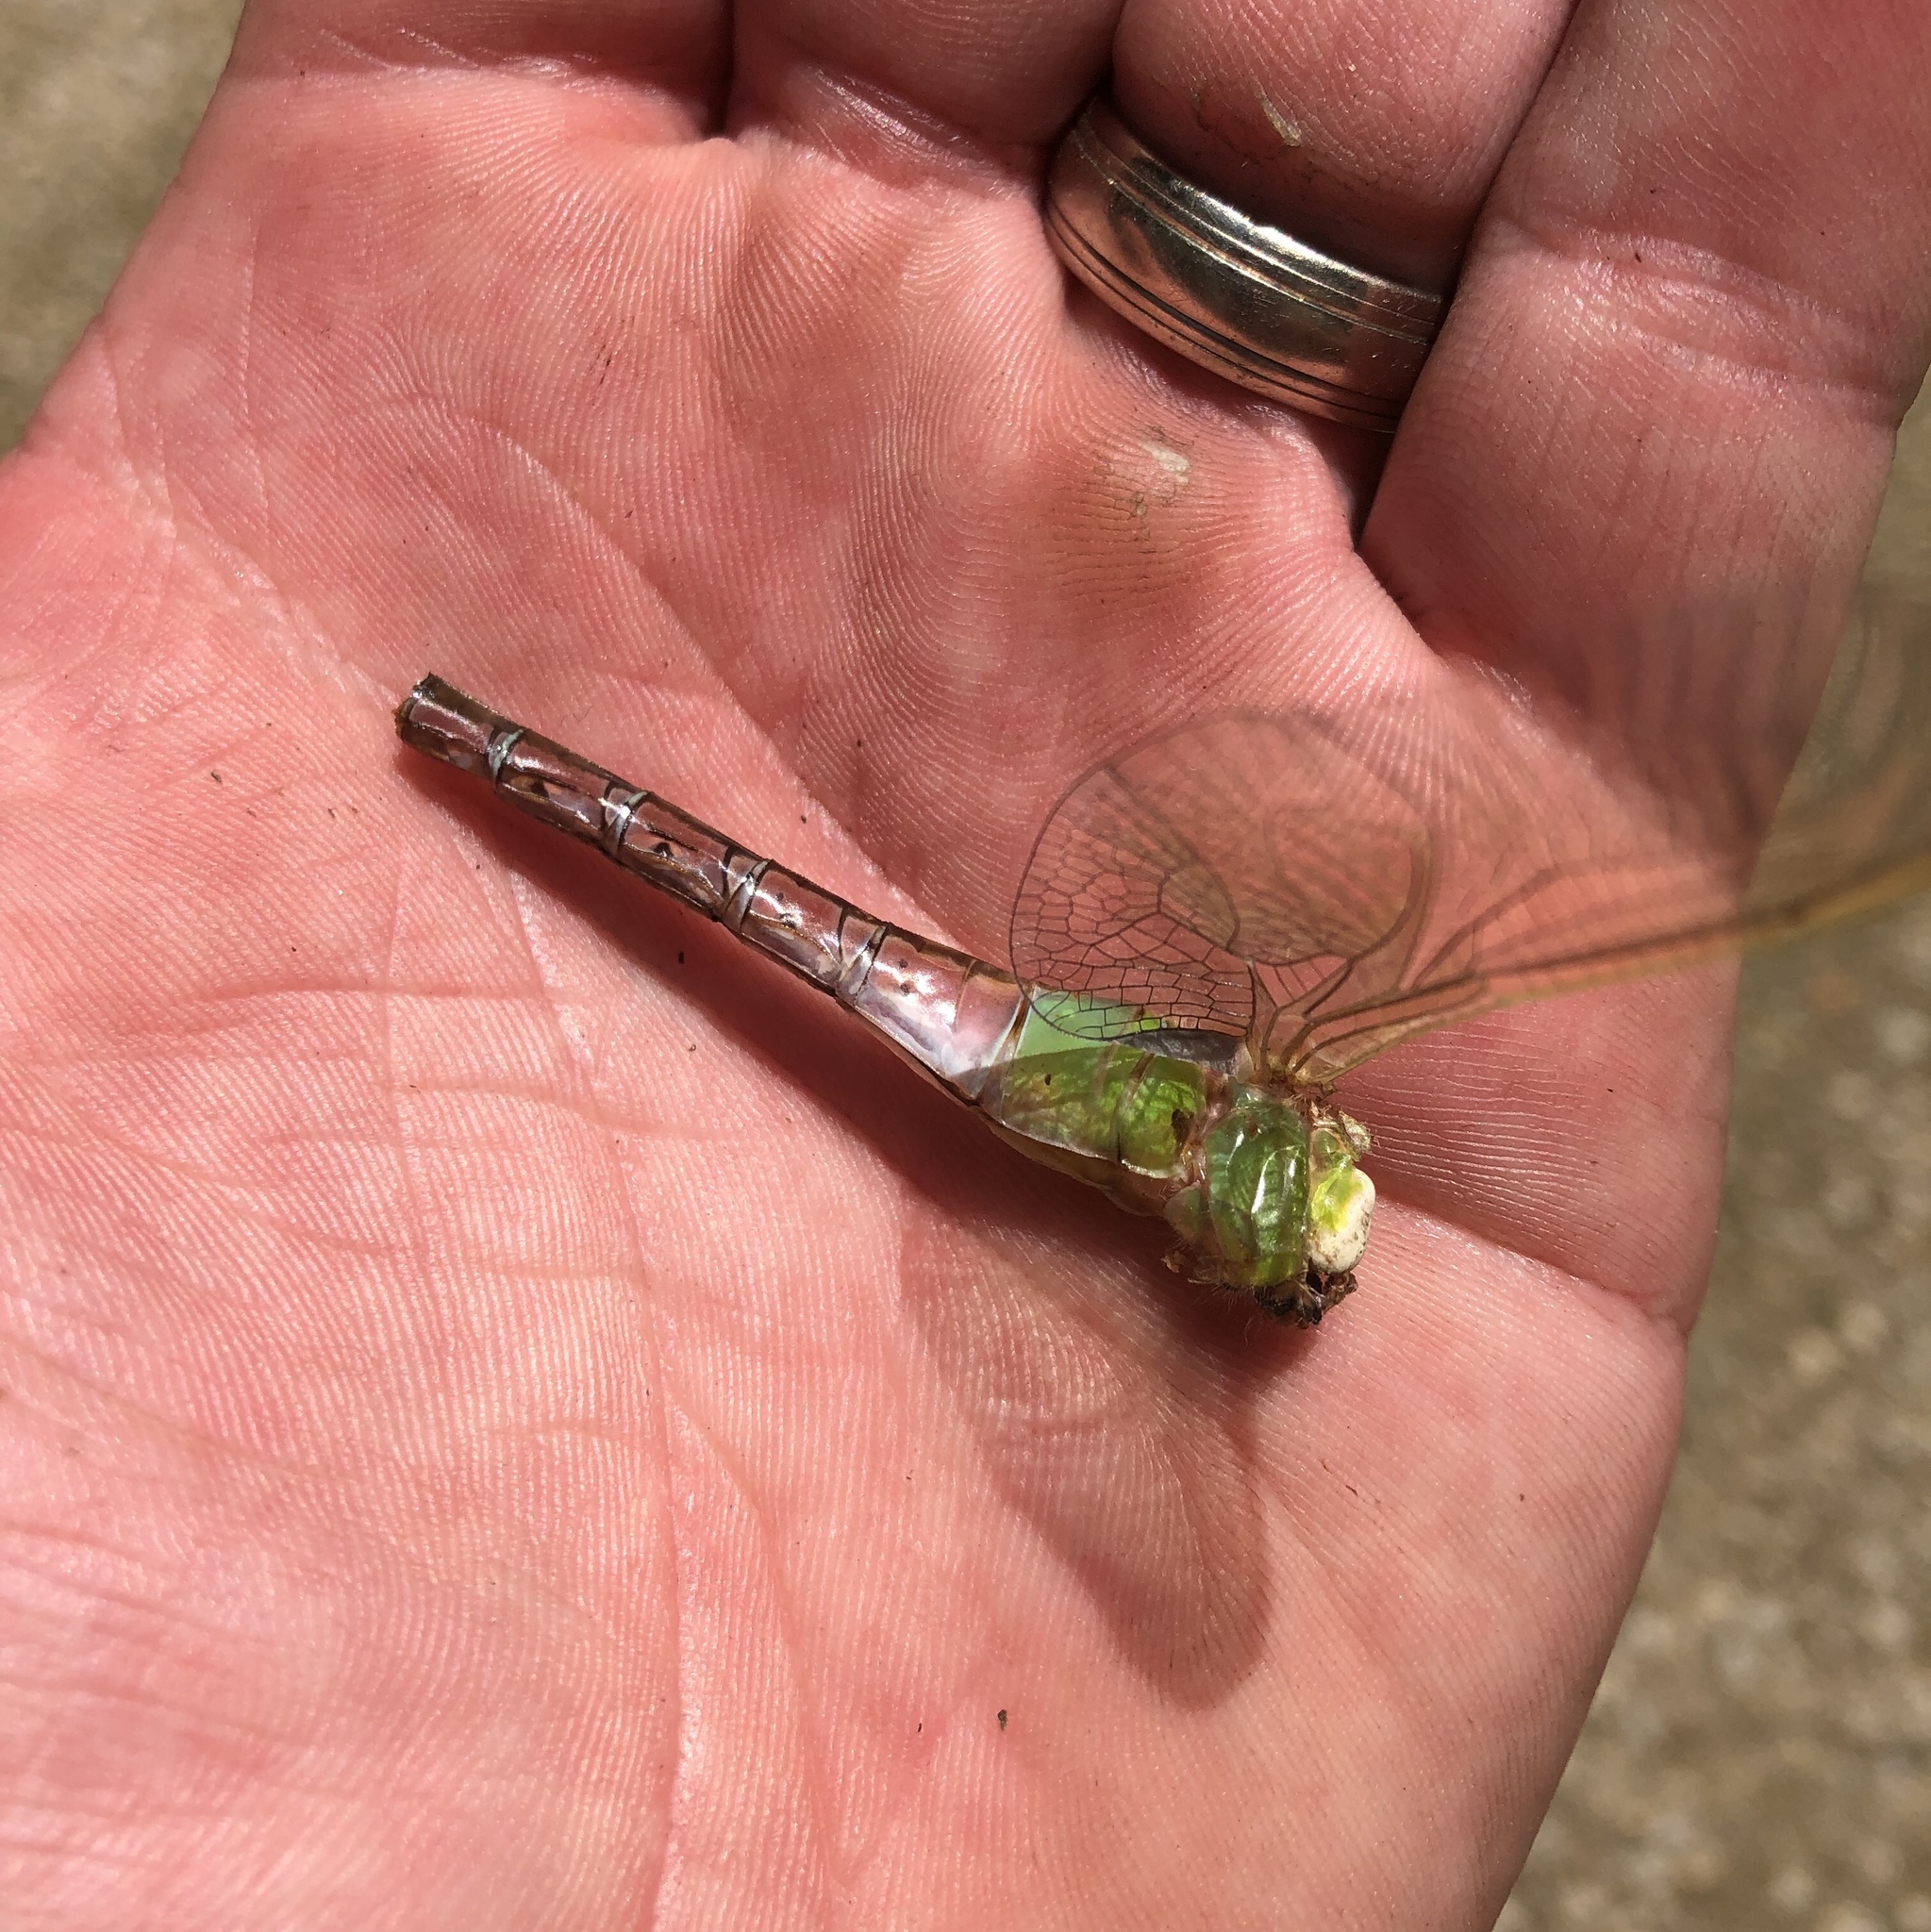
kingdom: Animalia
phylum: Arthropoda
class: Insecta
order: Odonata
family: Aeshnidae
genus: Anax
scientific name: Anax junius
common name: Common green darner
